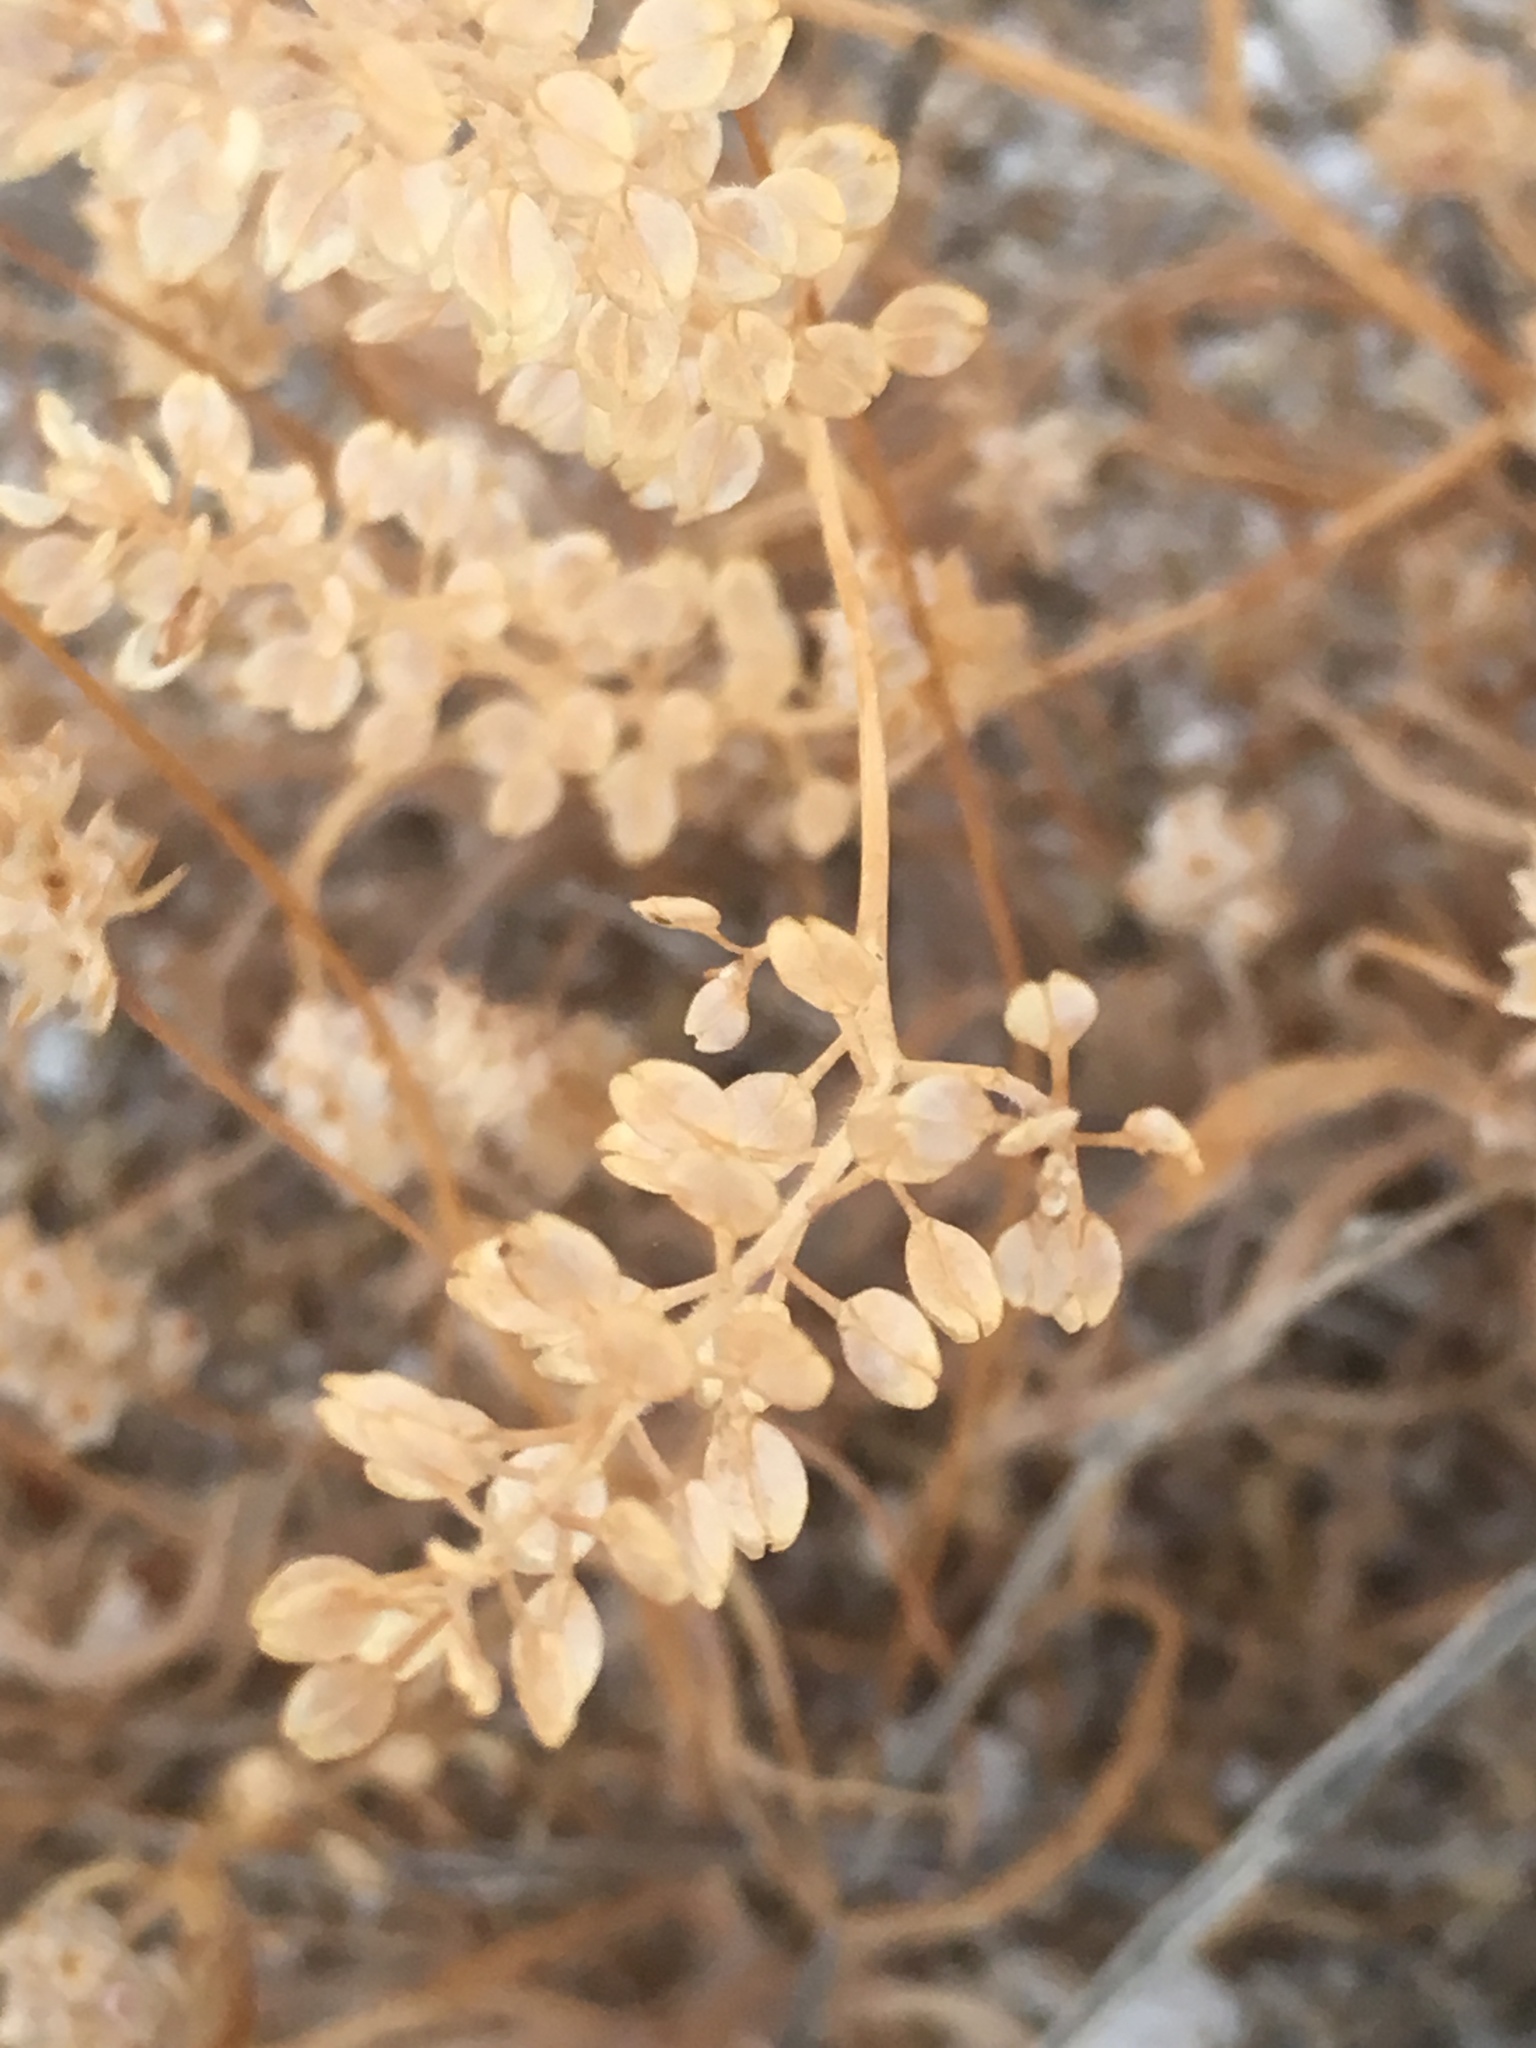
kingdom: Plantae
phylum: Tracheophyta
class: Magnoliopsida
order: Brassicales
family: Brassicaceae
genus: Lepidium
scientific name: Lepidium lasiocarpum
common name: Hairy-pod pepperwort
